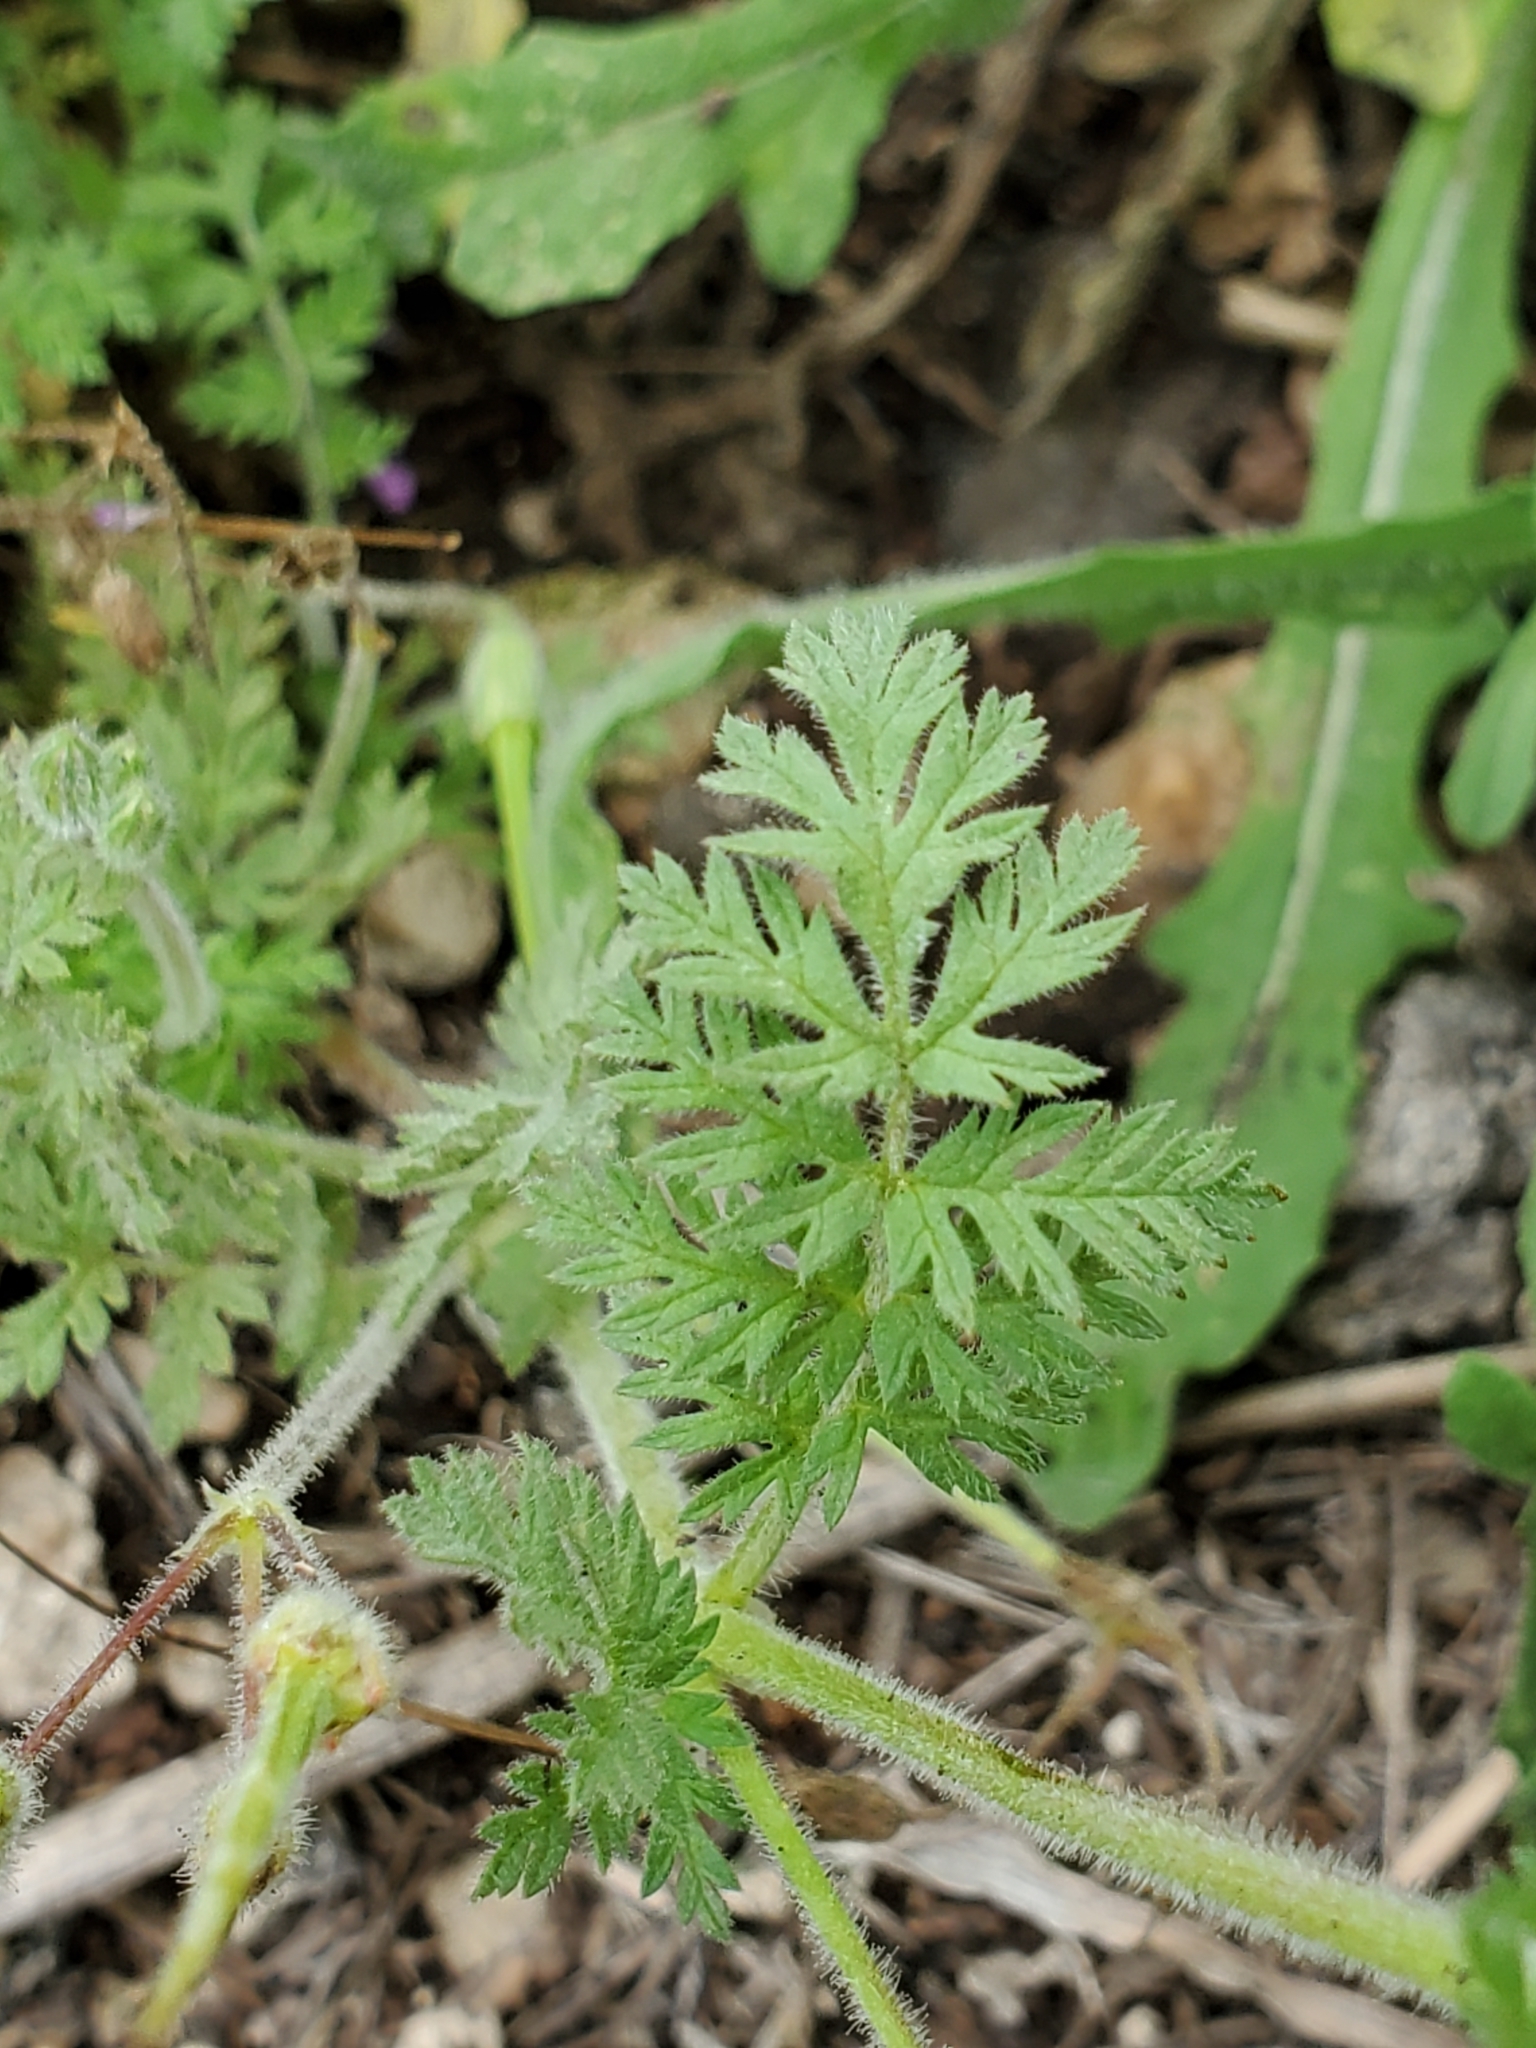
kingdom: Plantae
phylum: Tracheophyta
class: Magnoliopsida
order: Geraniales
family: Geraniaceae
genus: Erodium
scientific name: Erodium cicutarium
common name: Common stork's-bill
